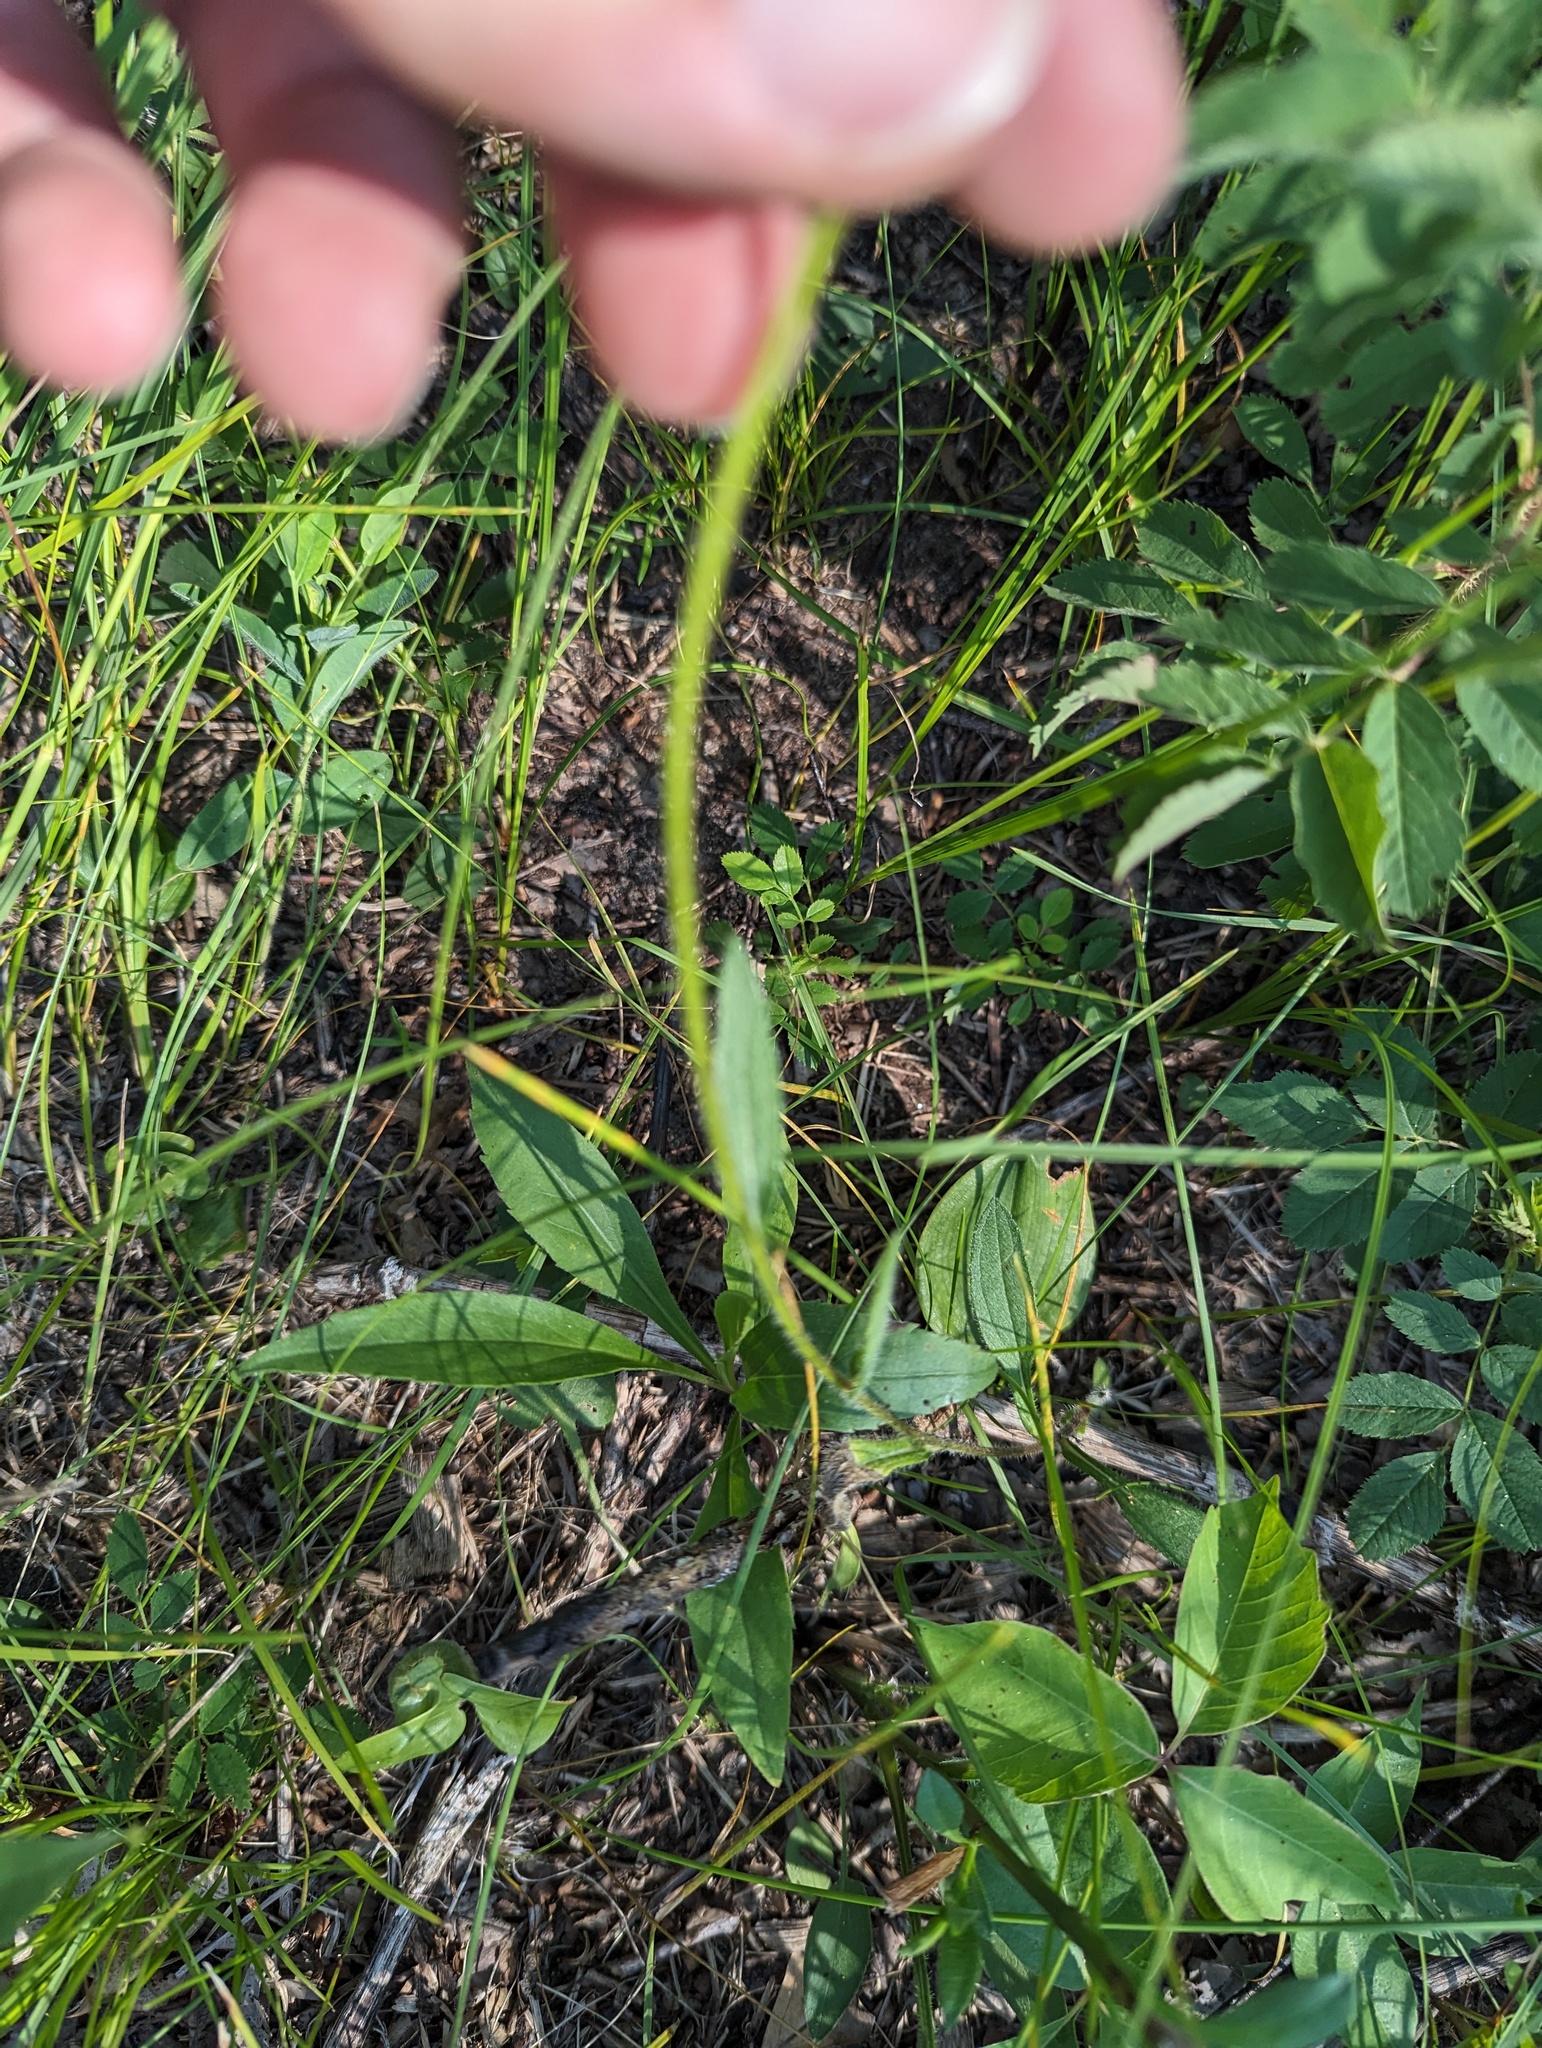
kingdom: Plantae
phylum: Tracheophyta
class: Magnoliopsida
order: Asterales
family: Asteraceae
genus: Rudbeckia
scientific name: Rudbeckia hirta
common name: Black-eyed-susan
